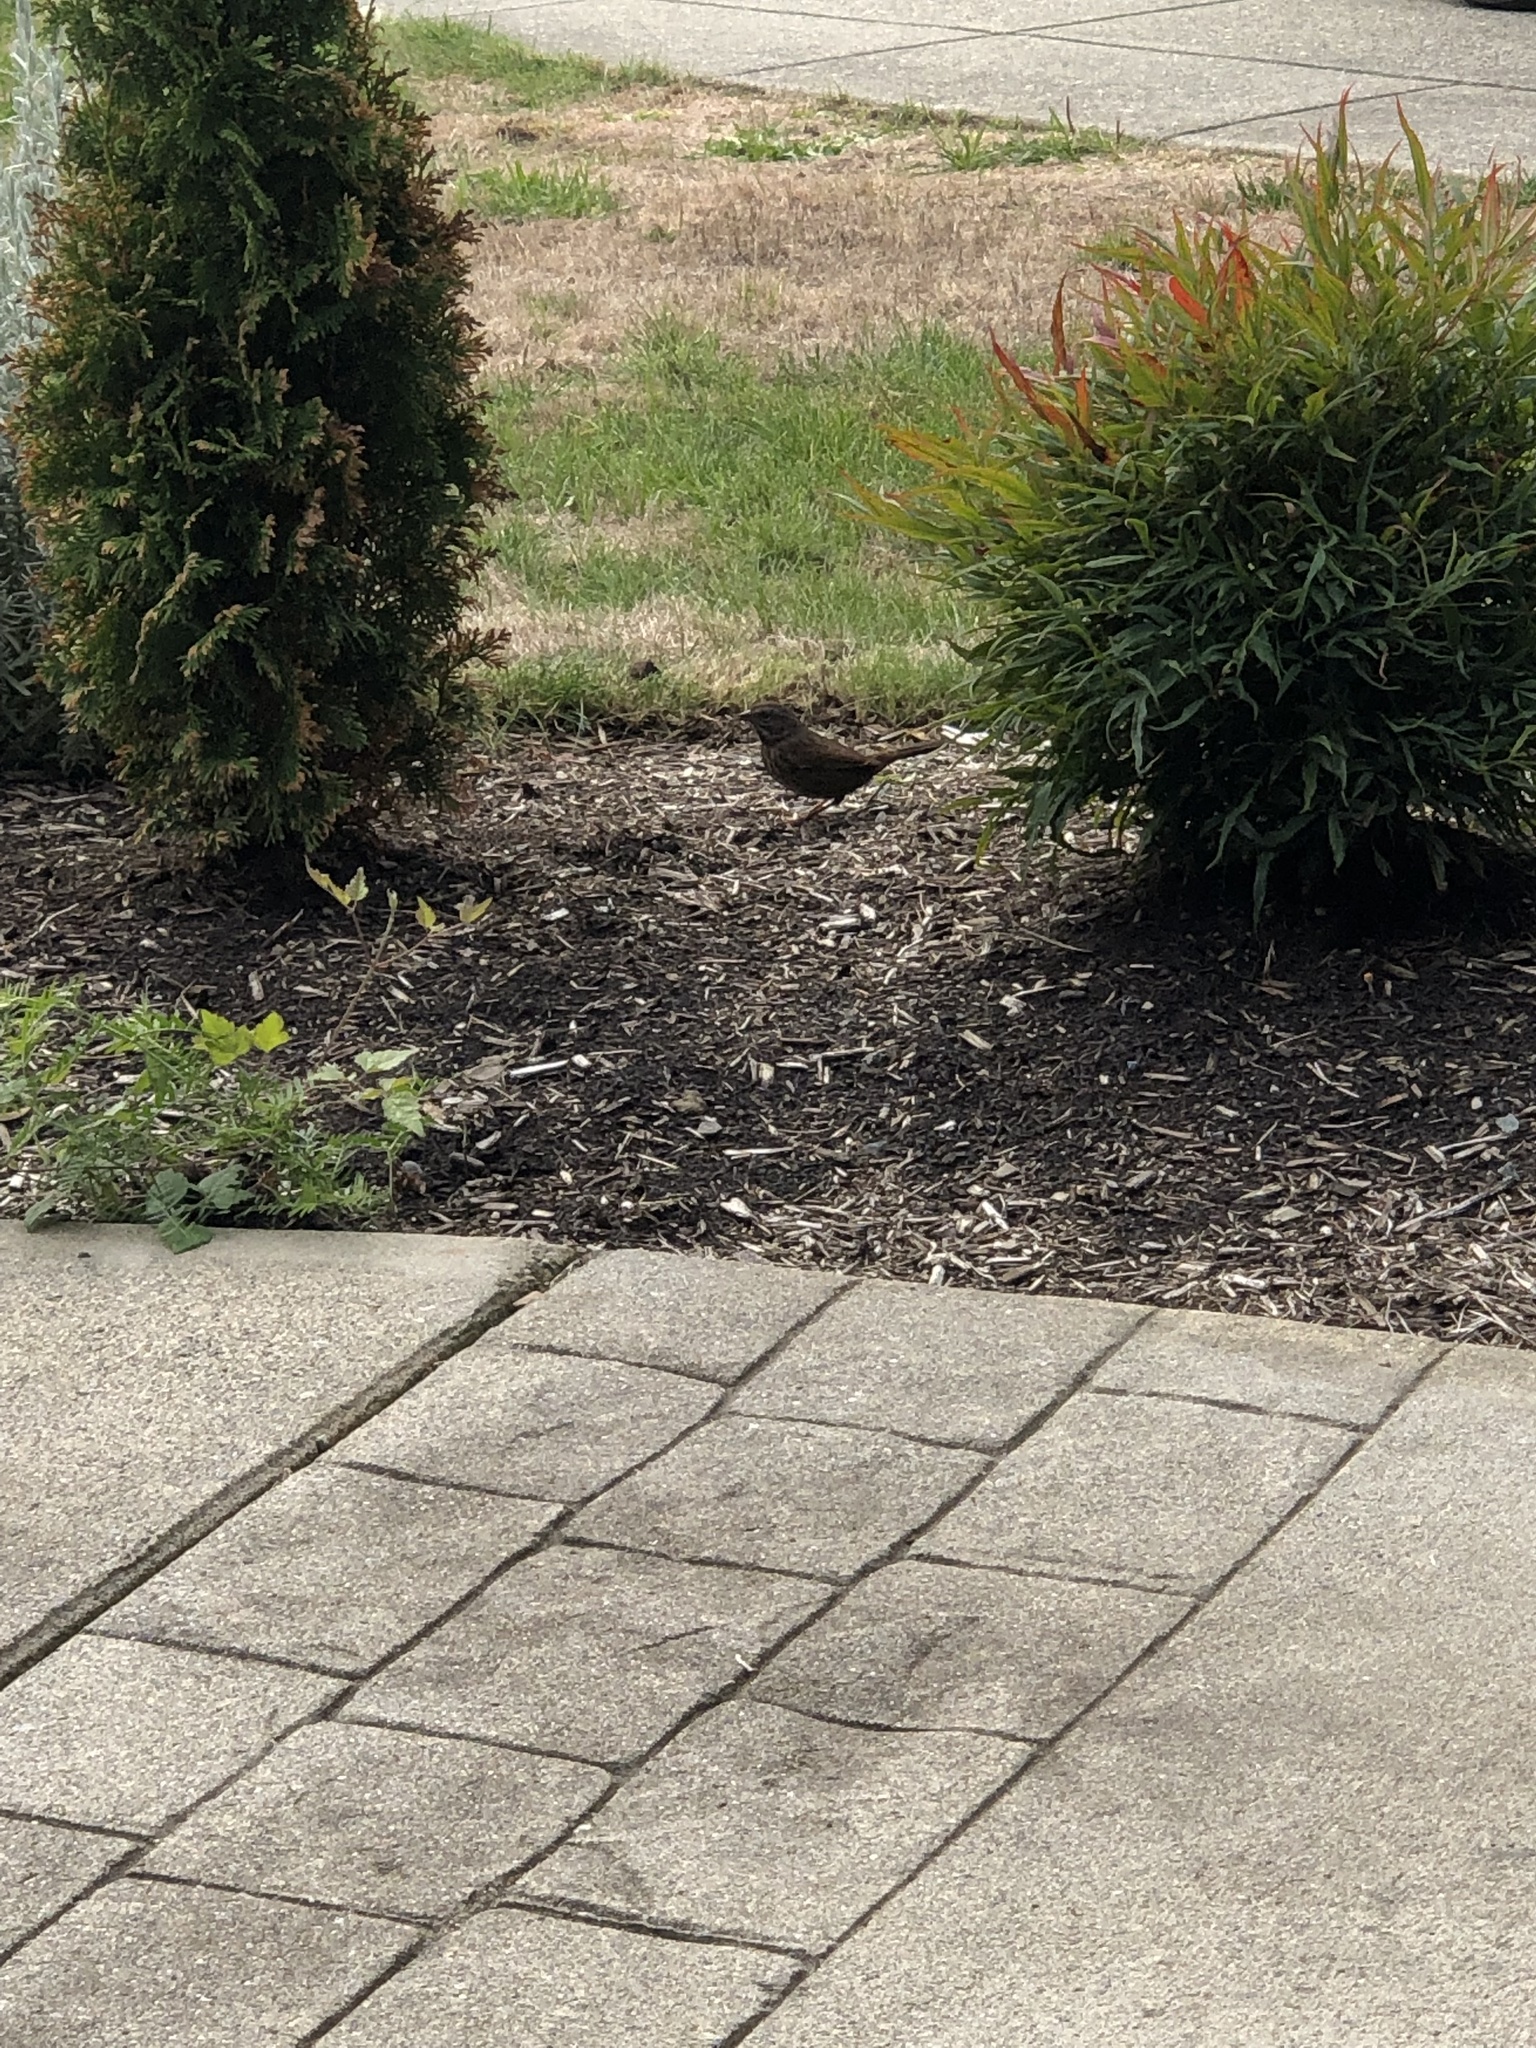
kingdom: Animalia
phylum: Chordata
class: Aves
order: Passeriformes
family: Passerellidae
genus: Melospiza
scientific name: Melospiza melodia
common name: Song sparrow
